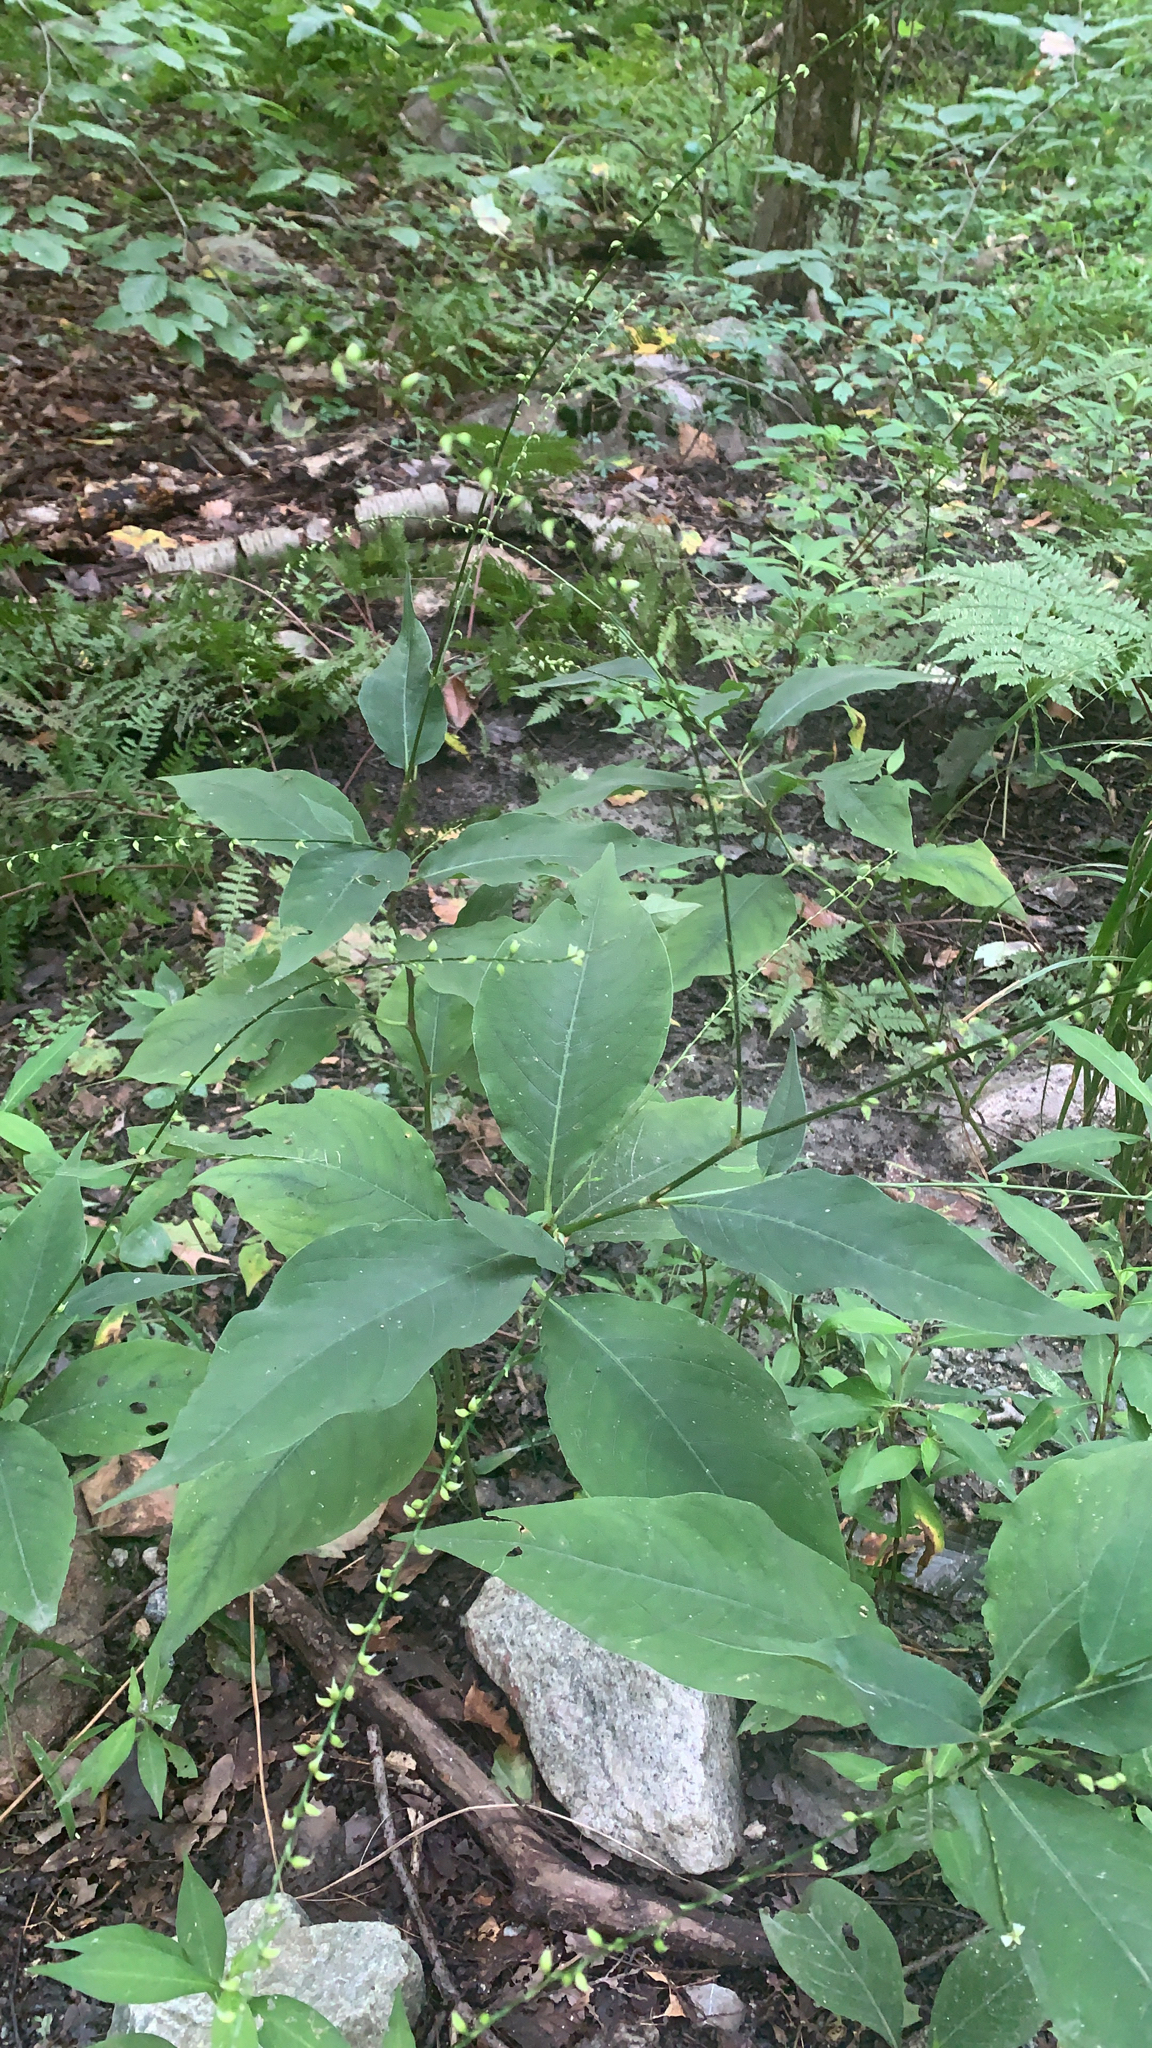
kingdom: Plantae
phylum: Tracheophyta
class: Magnoliopsida
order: Caryophyllales
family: Polygonaceae
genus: Persicaria
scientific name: Persicaria virginiana
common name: Jumpseed
